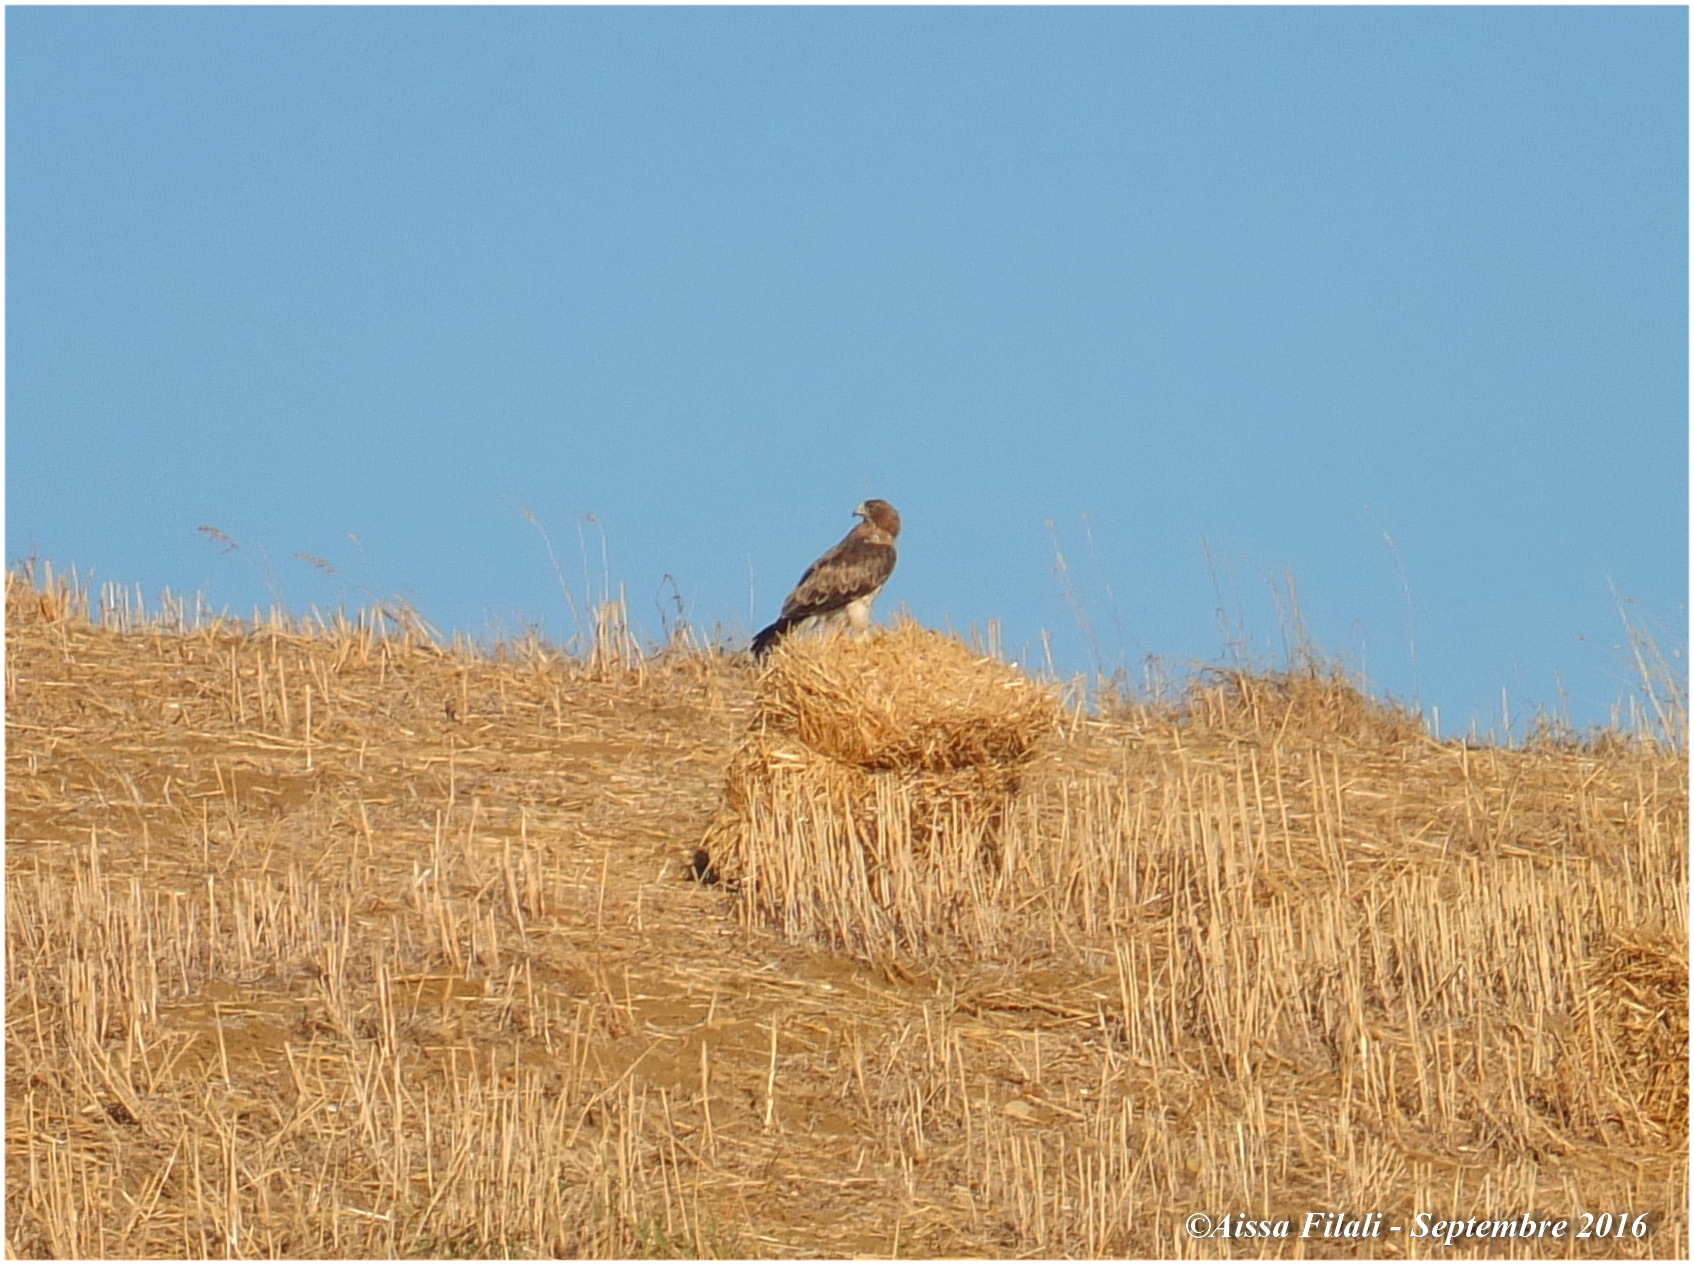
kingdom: Animalia
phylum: Chordata
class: Aves
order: Accipitriformes
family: Accipitridae
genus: Hieraaetus
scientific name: Hieraaetus pennatus
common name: Booted eagle
